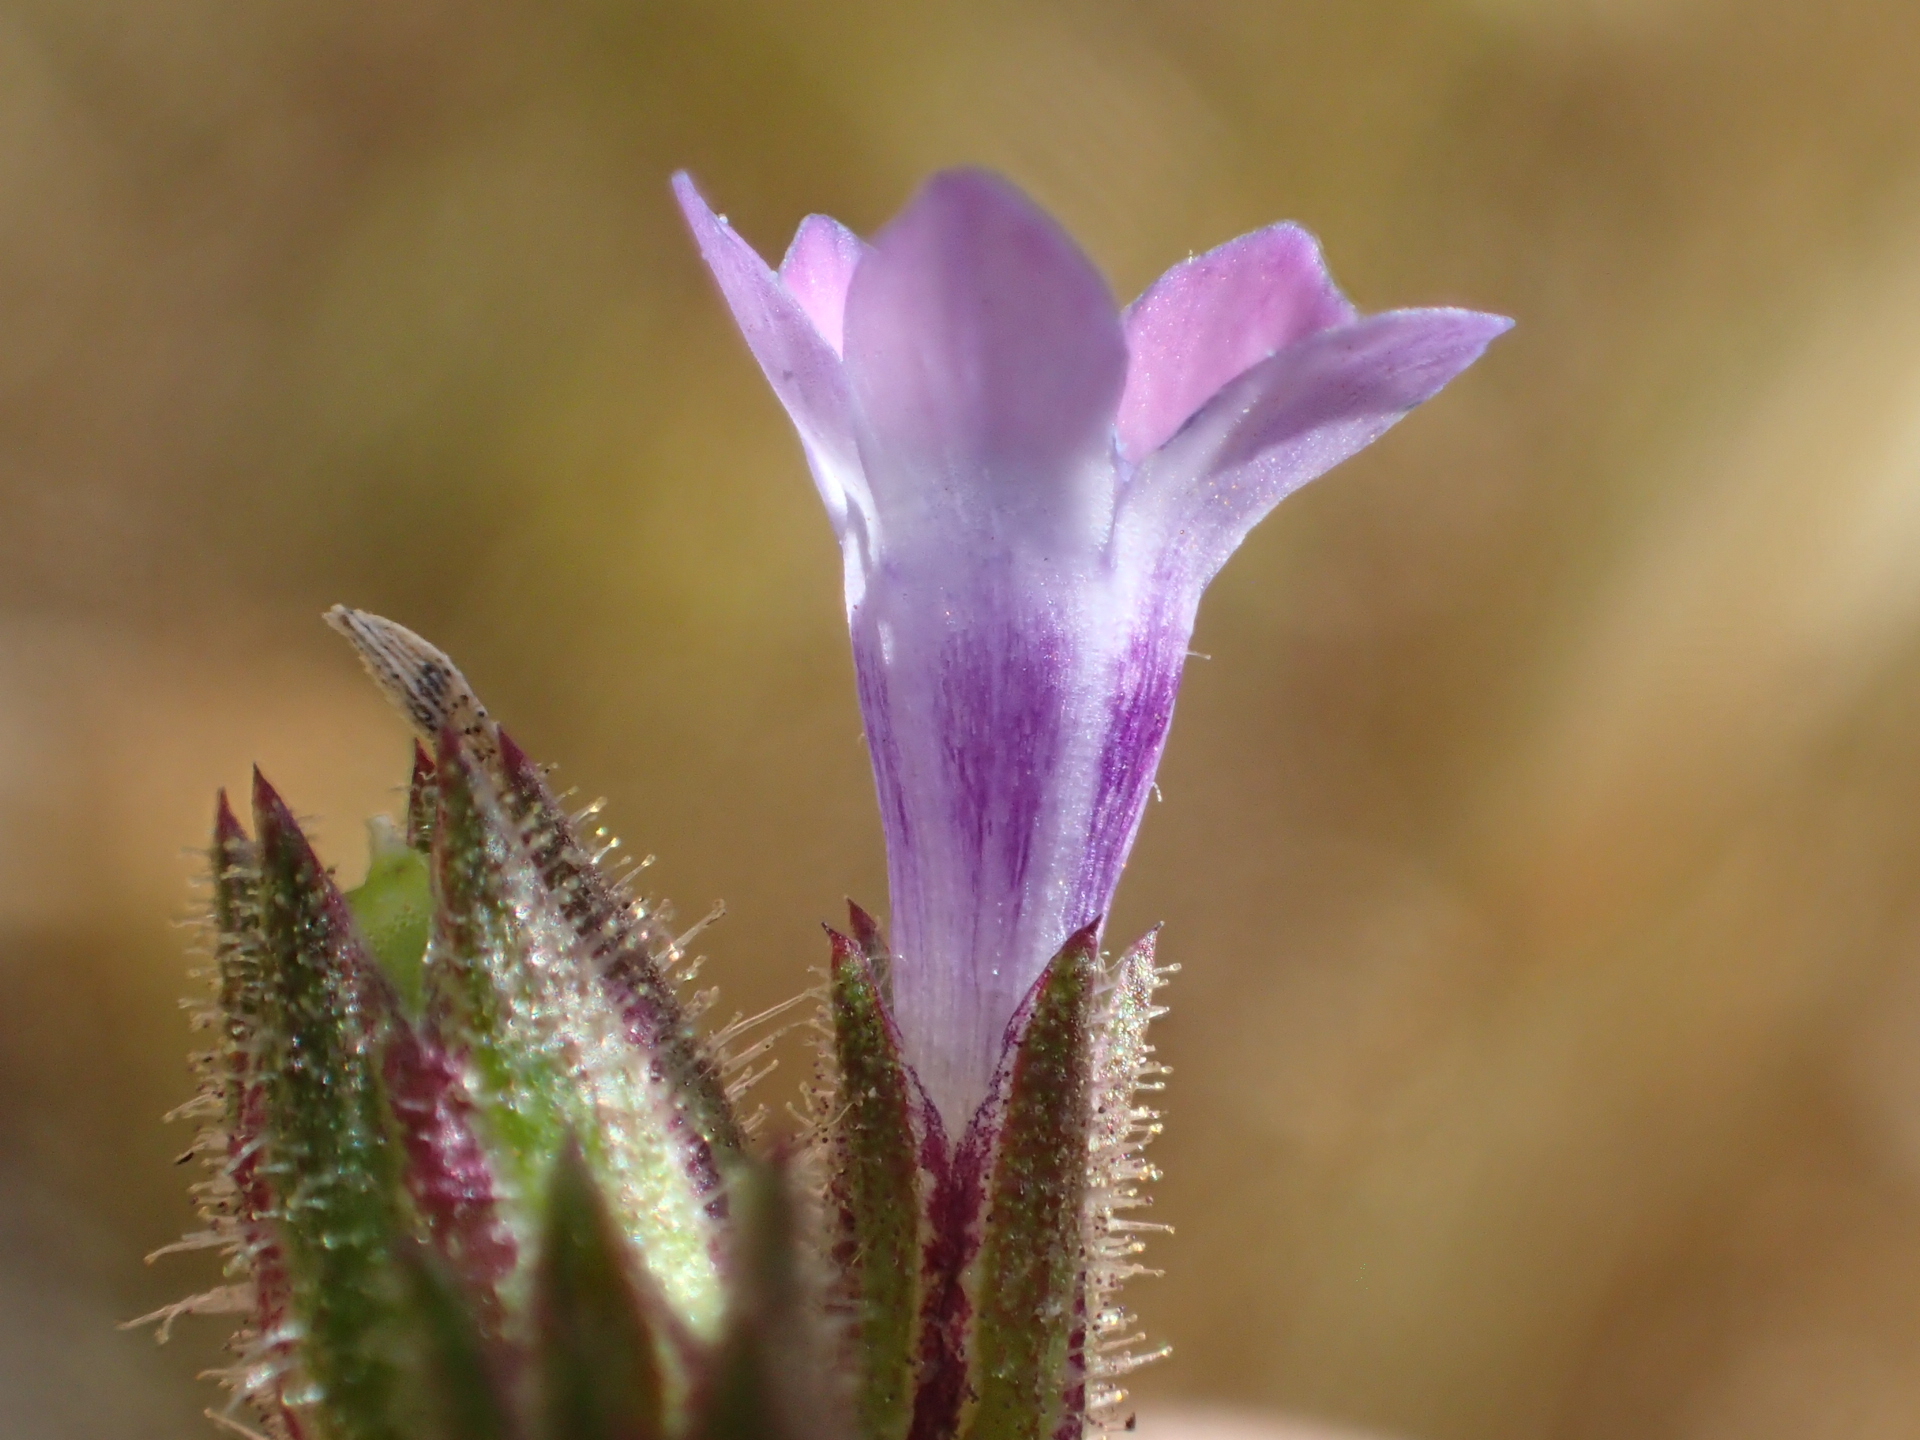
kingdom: Plantae
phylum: Tracheophyta
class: Magnoliopsida
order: Ericales
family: Polemoniaceae
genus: Gilia
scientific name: Gilia clivorum
